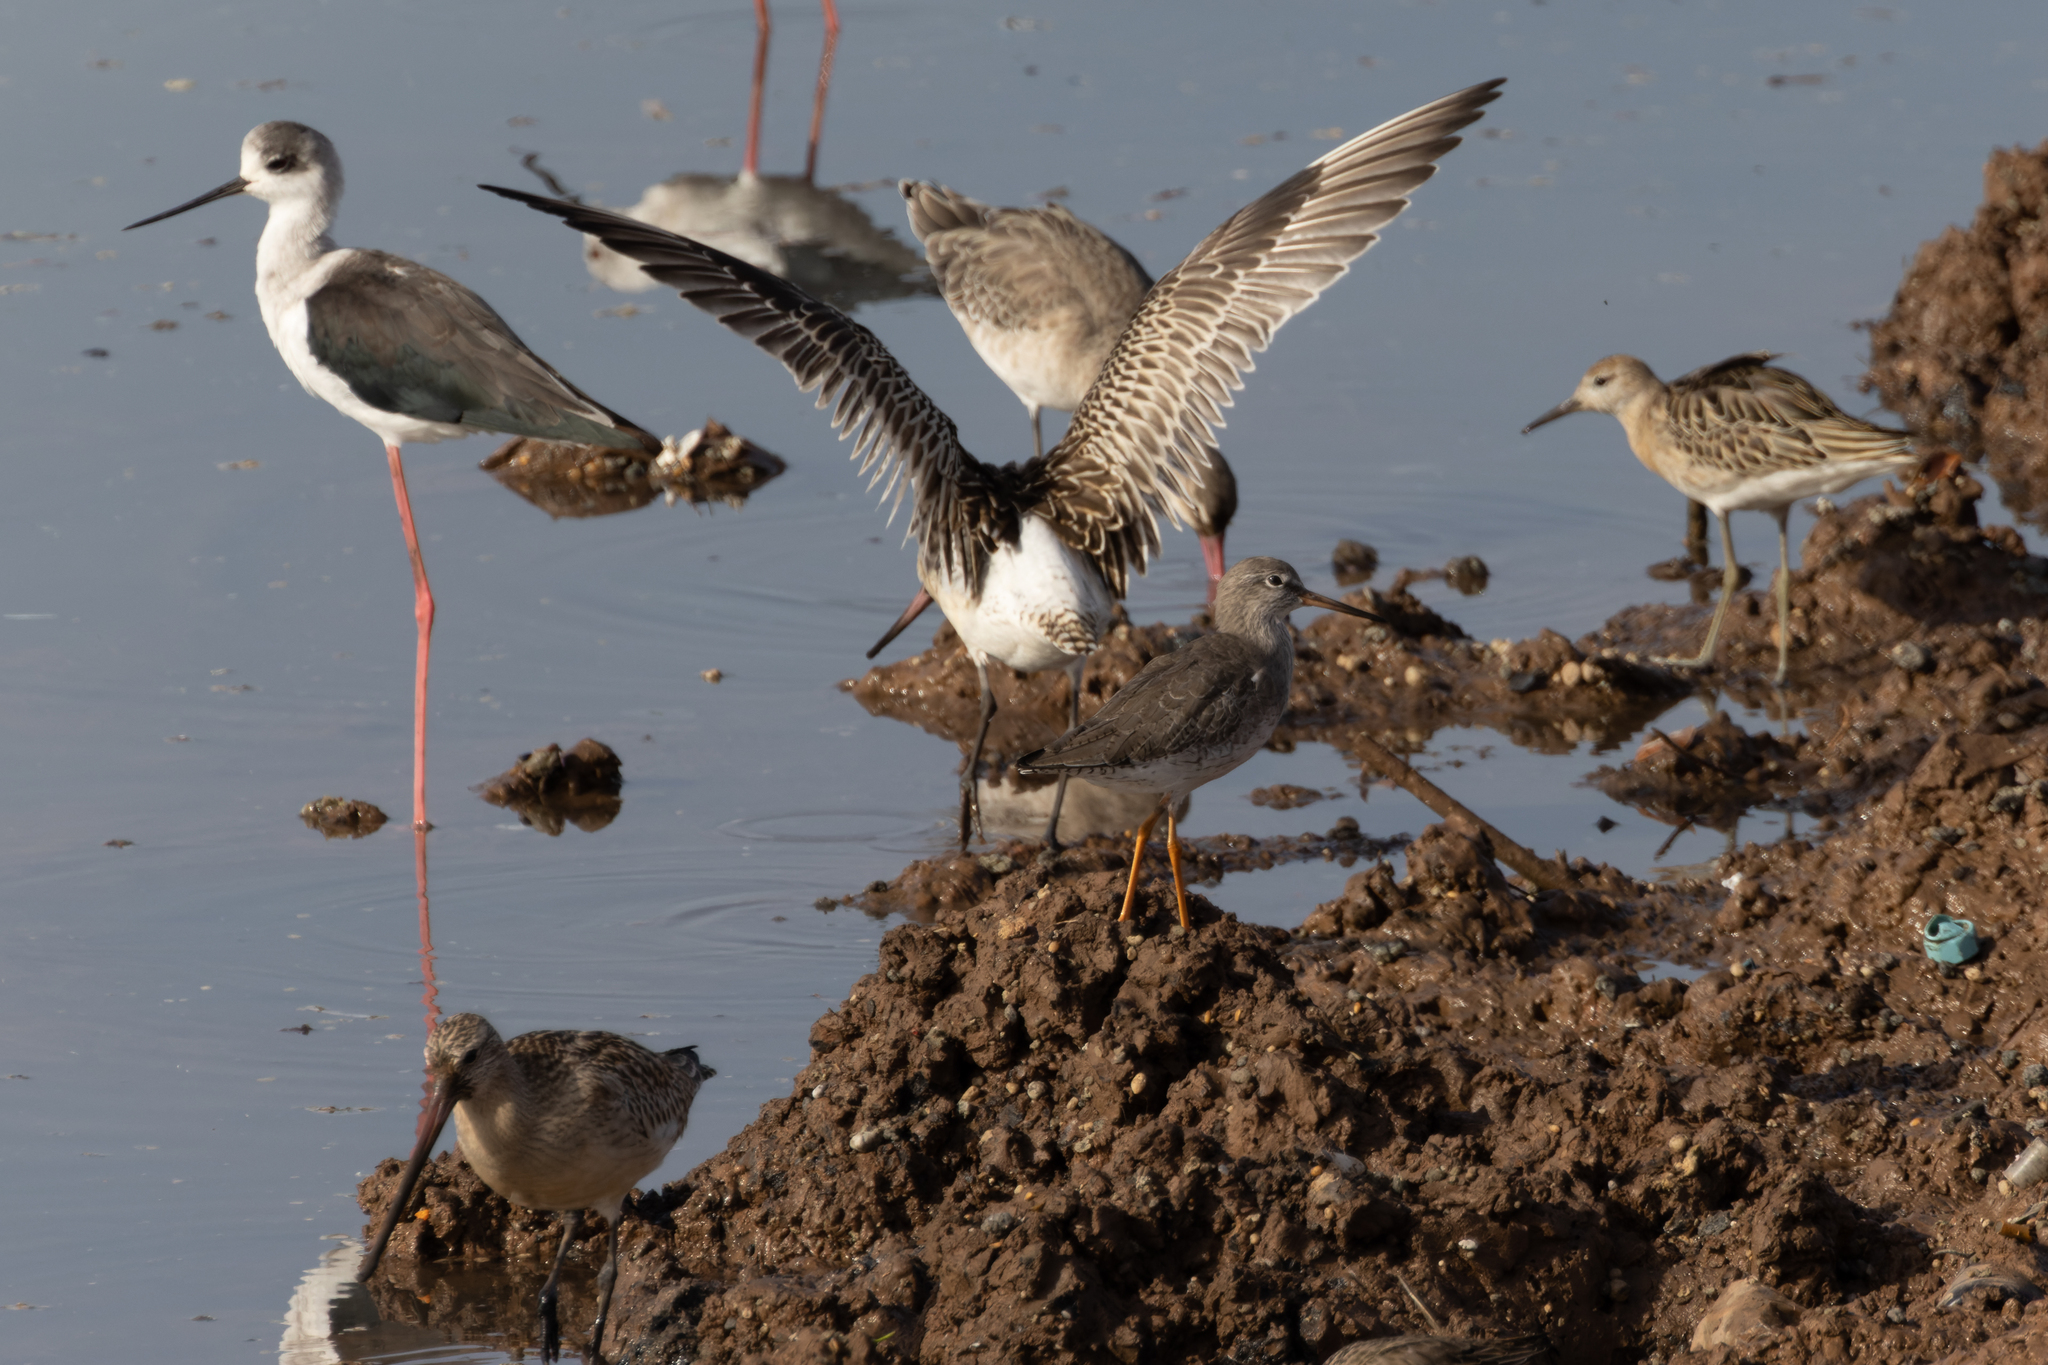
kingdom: Animalia
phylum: Chordata
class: Aves
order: Charadriiformes
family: Scolopacidae
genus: Limosa
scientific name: Limosa lapponica
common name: Bar-tailed godwit
